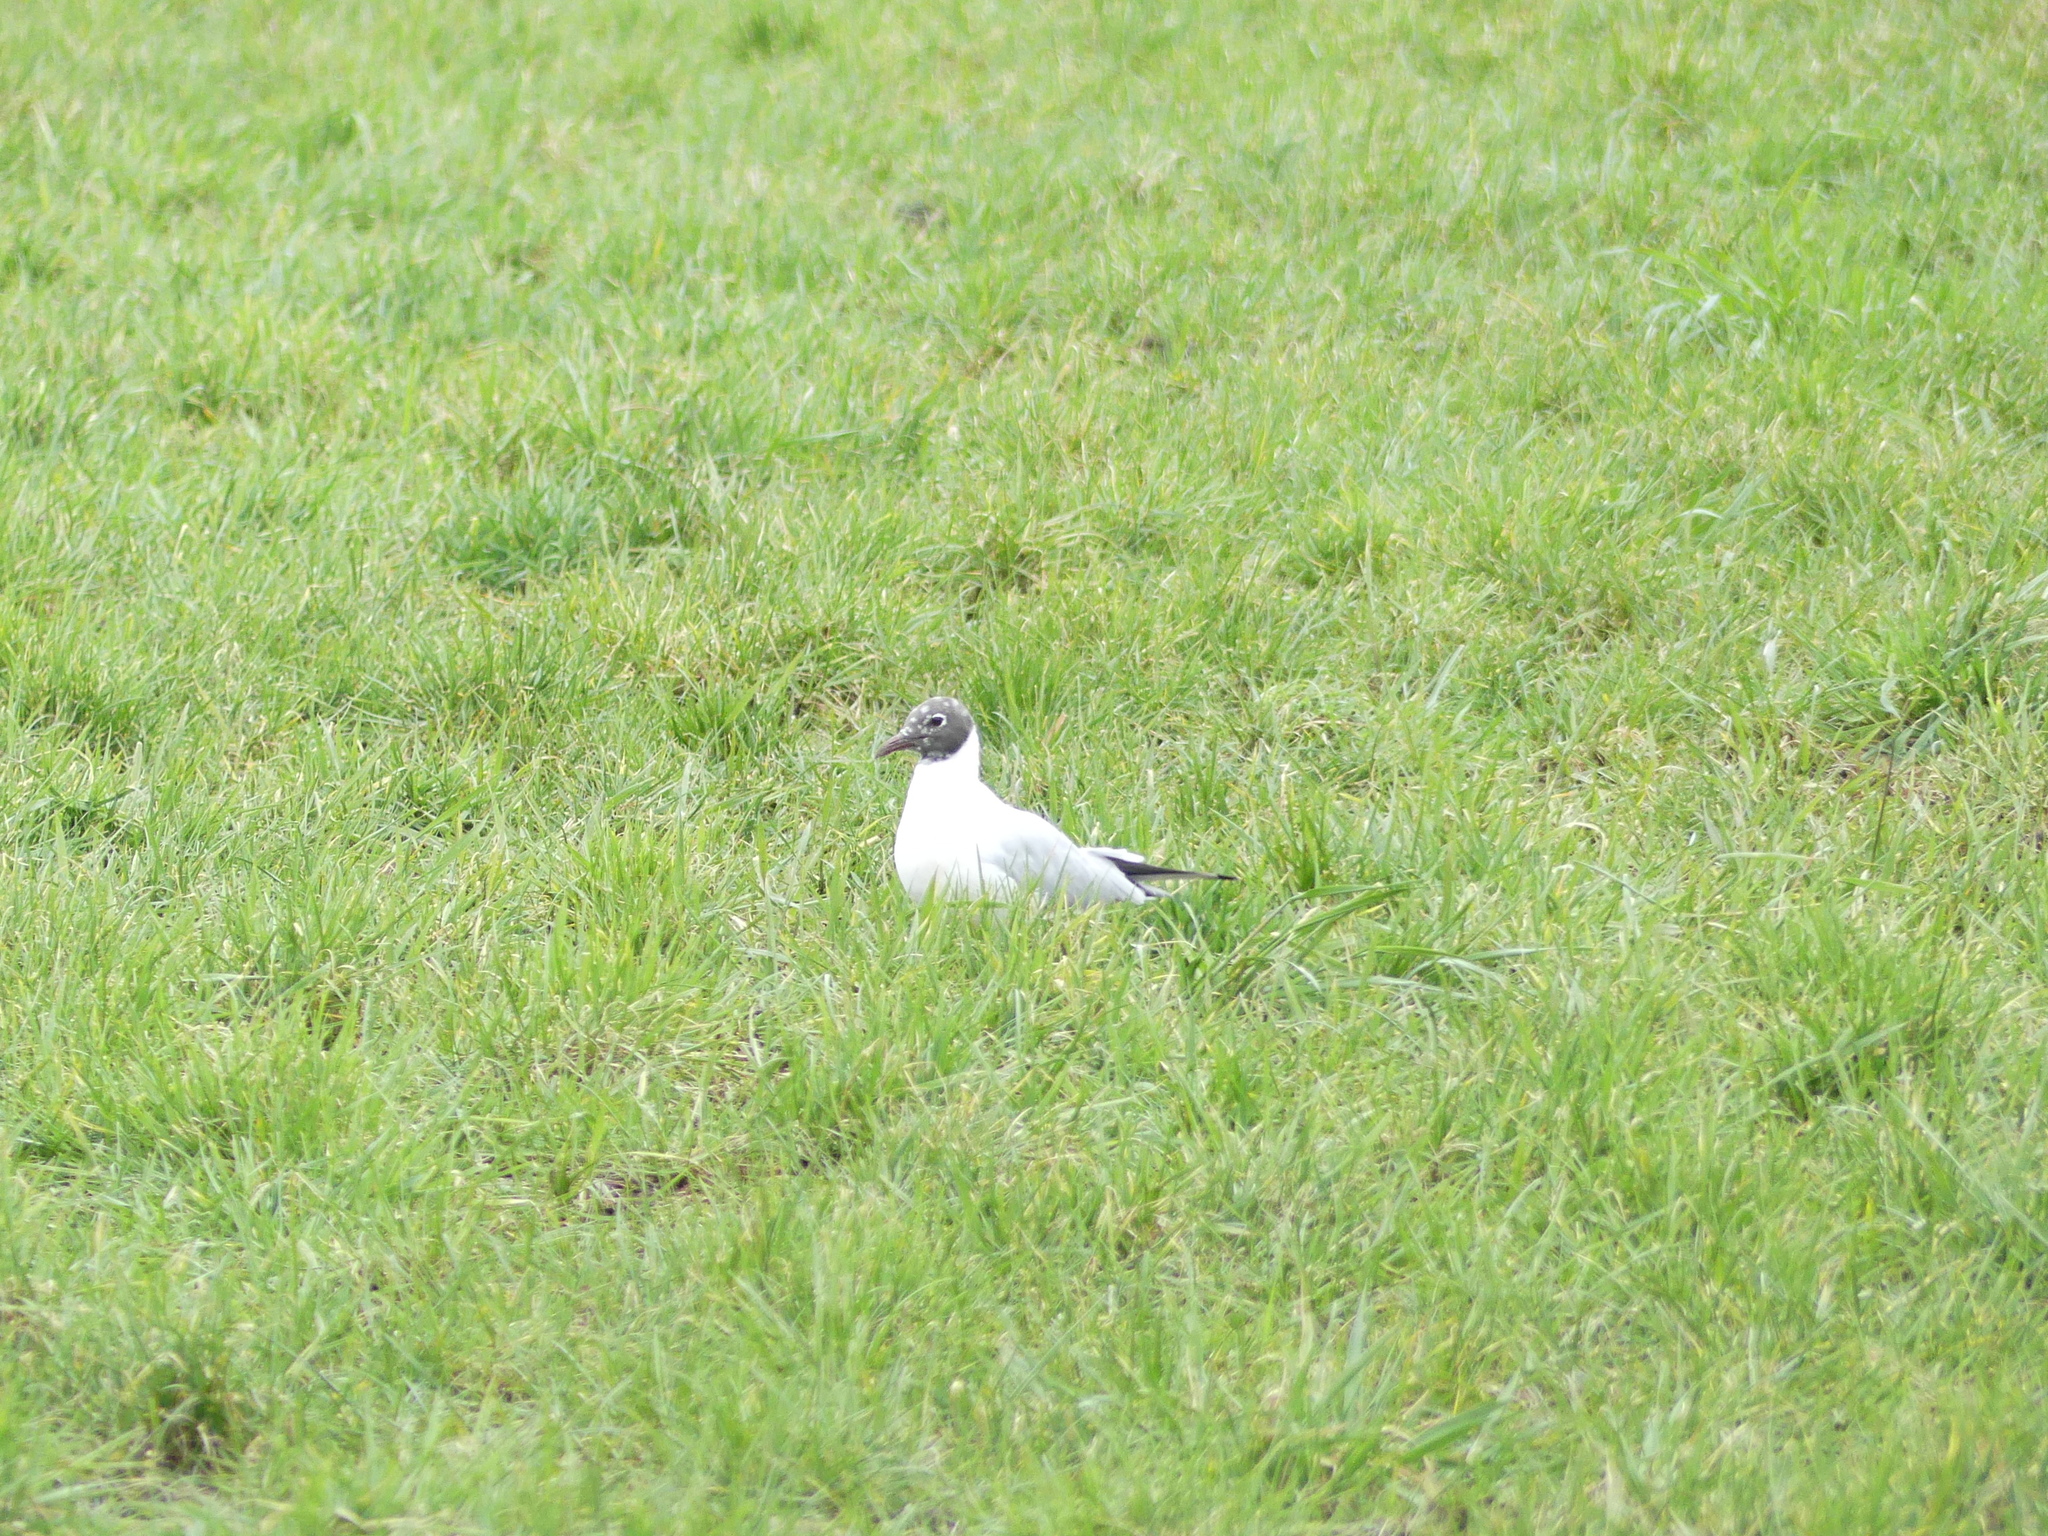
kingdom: Animalia
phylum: Chordata
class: Aves
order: Charadriiformes
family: Laridae
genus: Chroicocephalus
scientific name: Chroicocephalus ridibundus
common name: Black-headed gull
